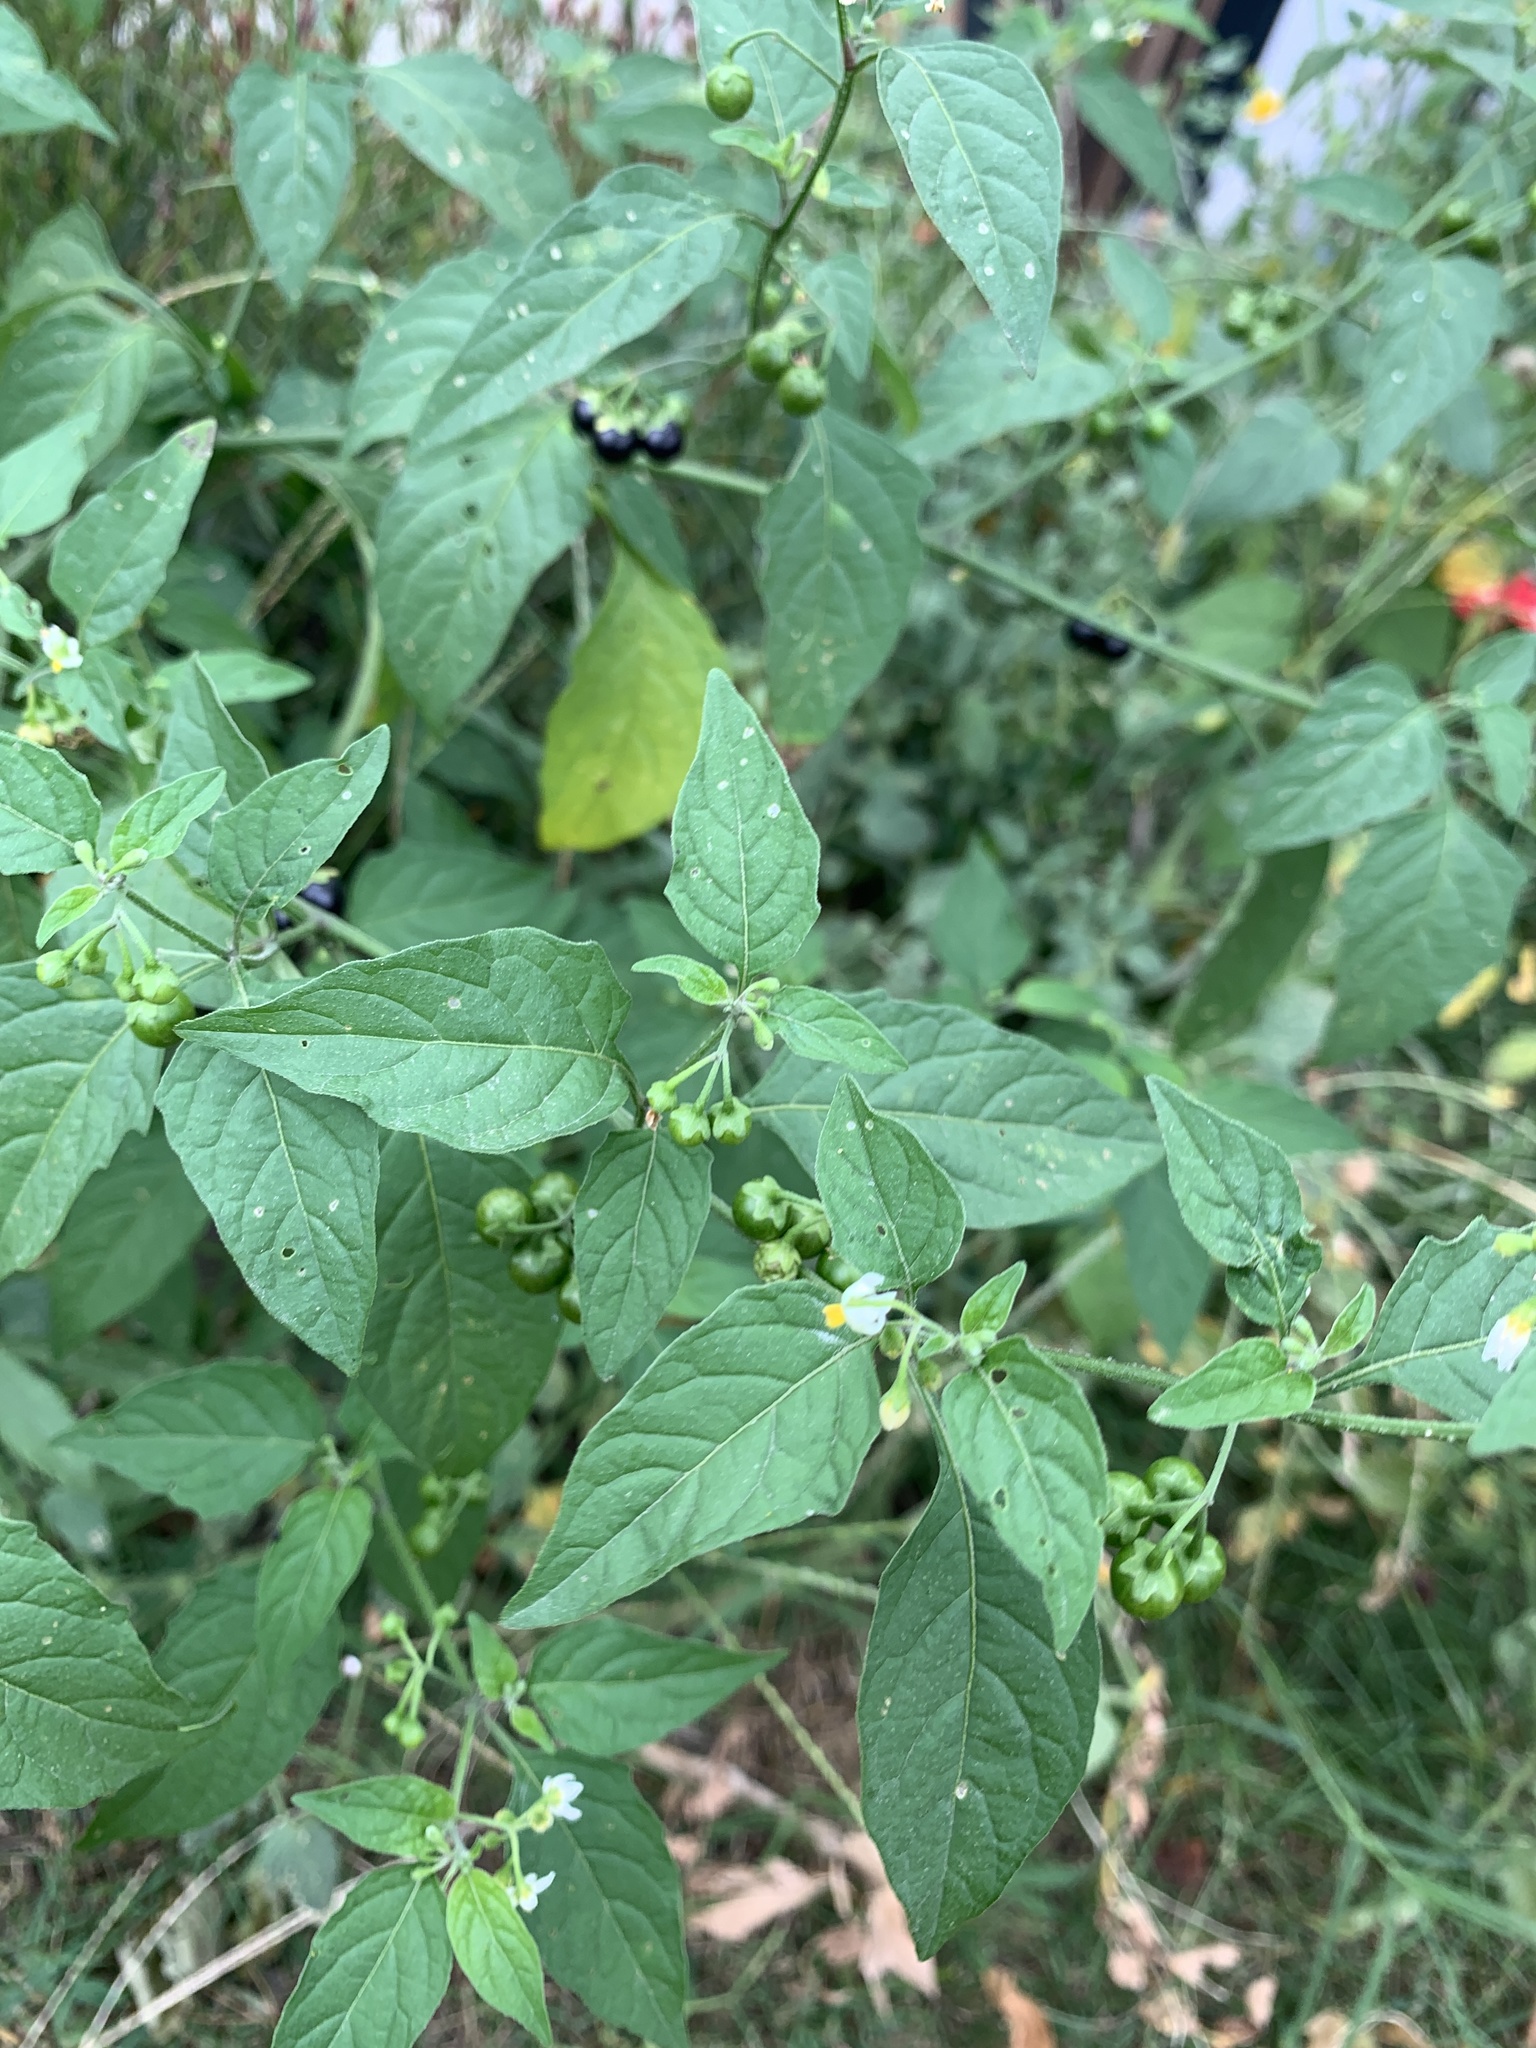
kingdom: Plantae
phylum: Tracheophyta
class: Magnoliopsida
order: Solanales
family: Solanaceae
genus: Solanum
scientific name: Solanum emulans
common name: Eastern black nightshade
